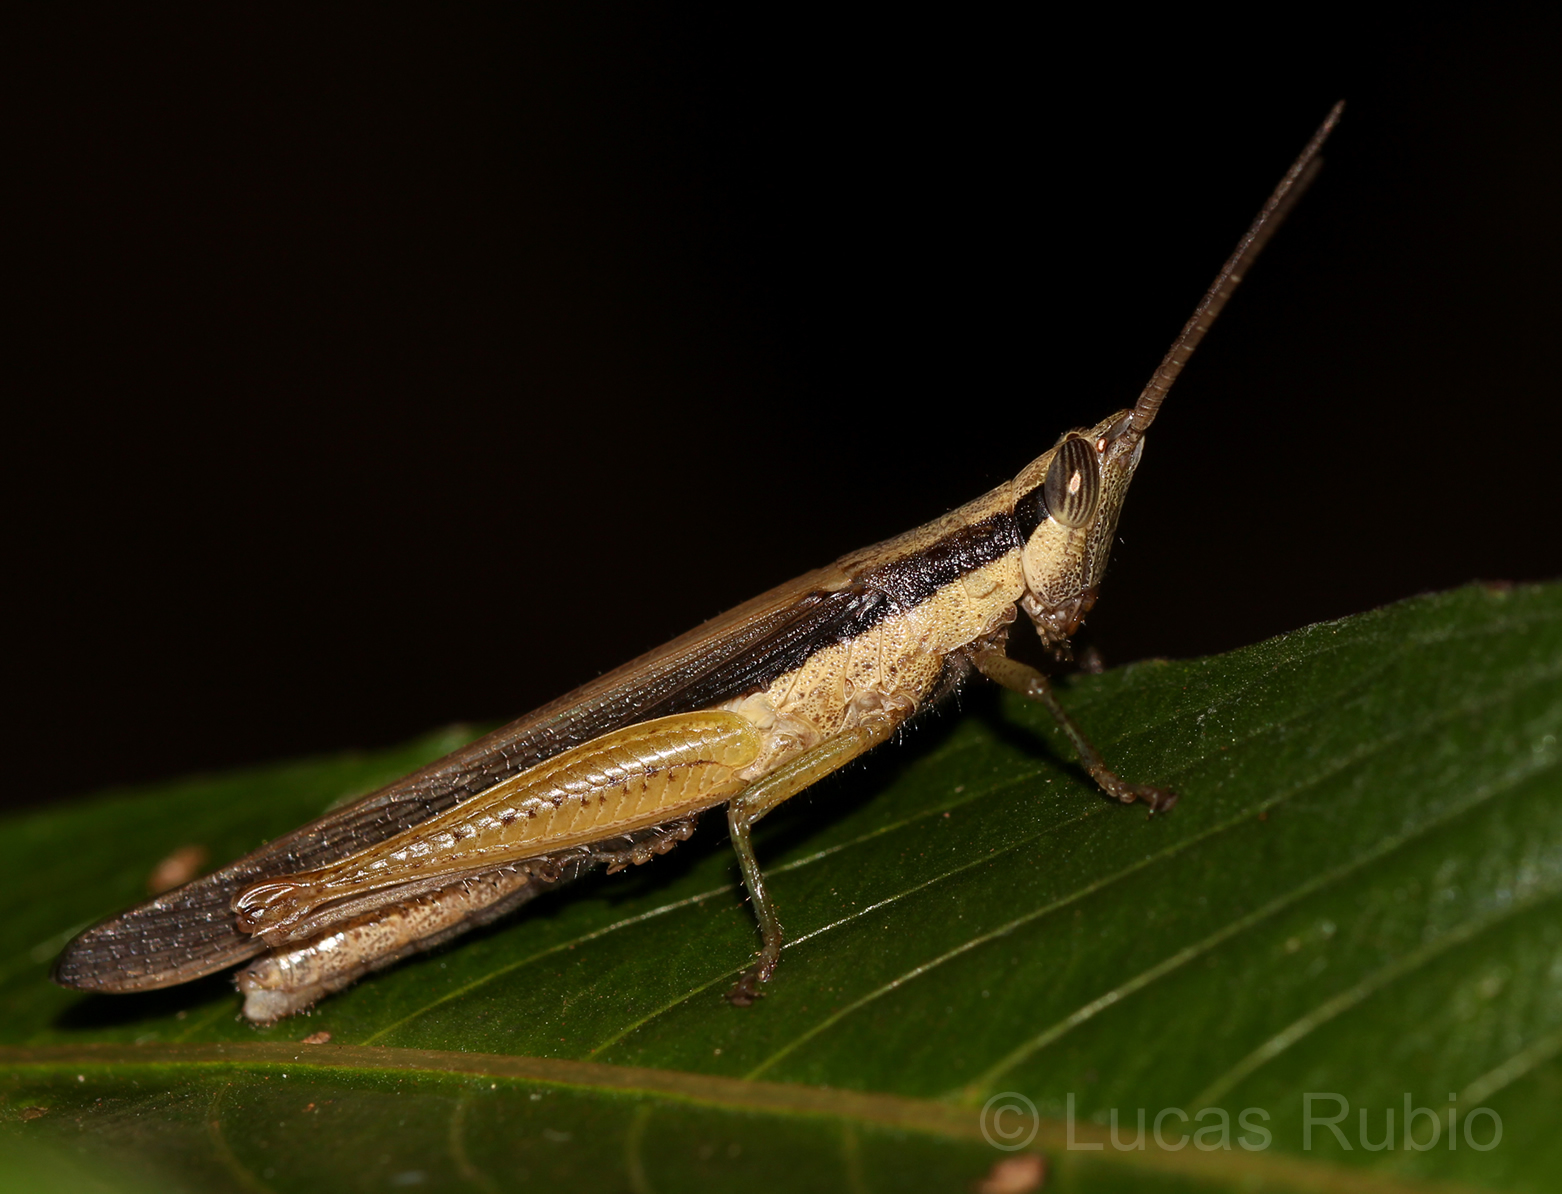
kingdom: Animalia
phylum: Arthropoda
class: Insecta
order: Orthoptera
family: Acrididae
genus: Stenopola
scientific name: Stenopola pallida
